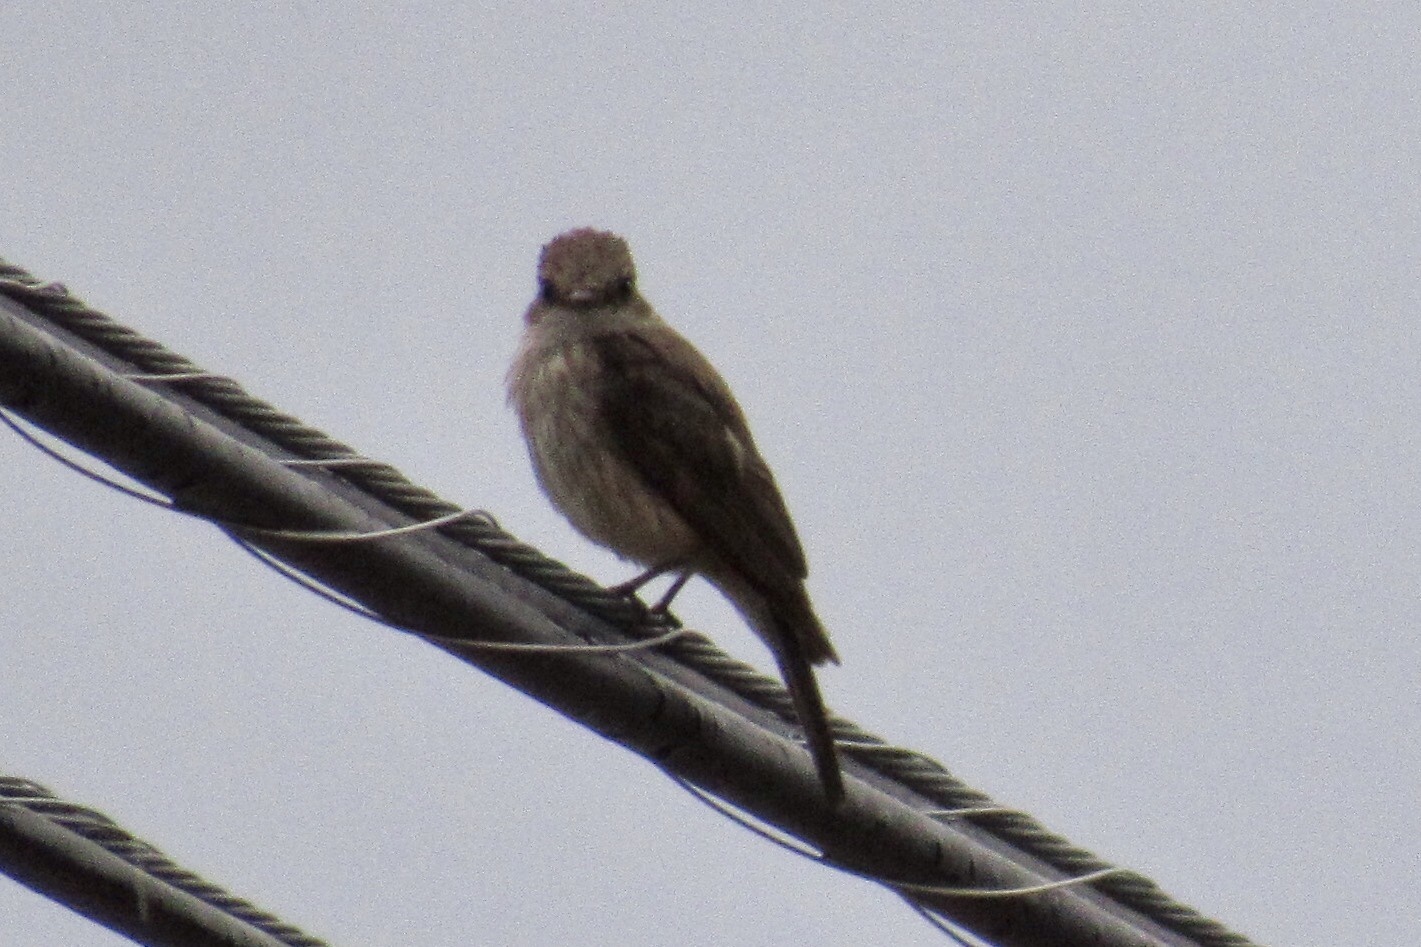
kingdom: Animalia
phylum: Chordata
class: Aves
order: Passeriformes
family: Tyrannidae
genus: Pyrocephalus
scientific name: Pyrocephalus rubinus
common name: Vermilion flycatcher
